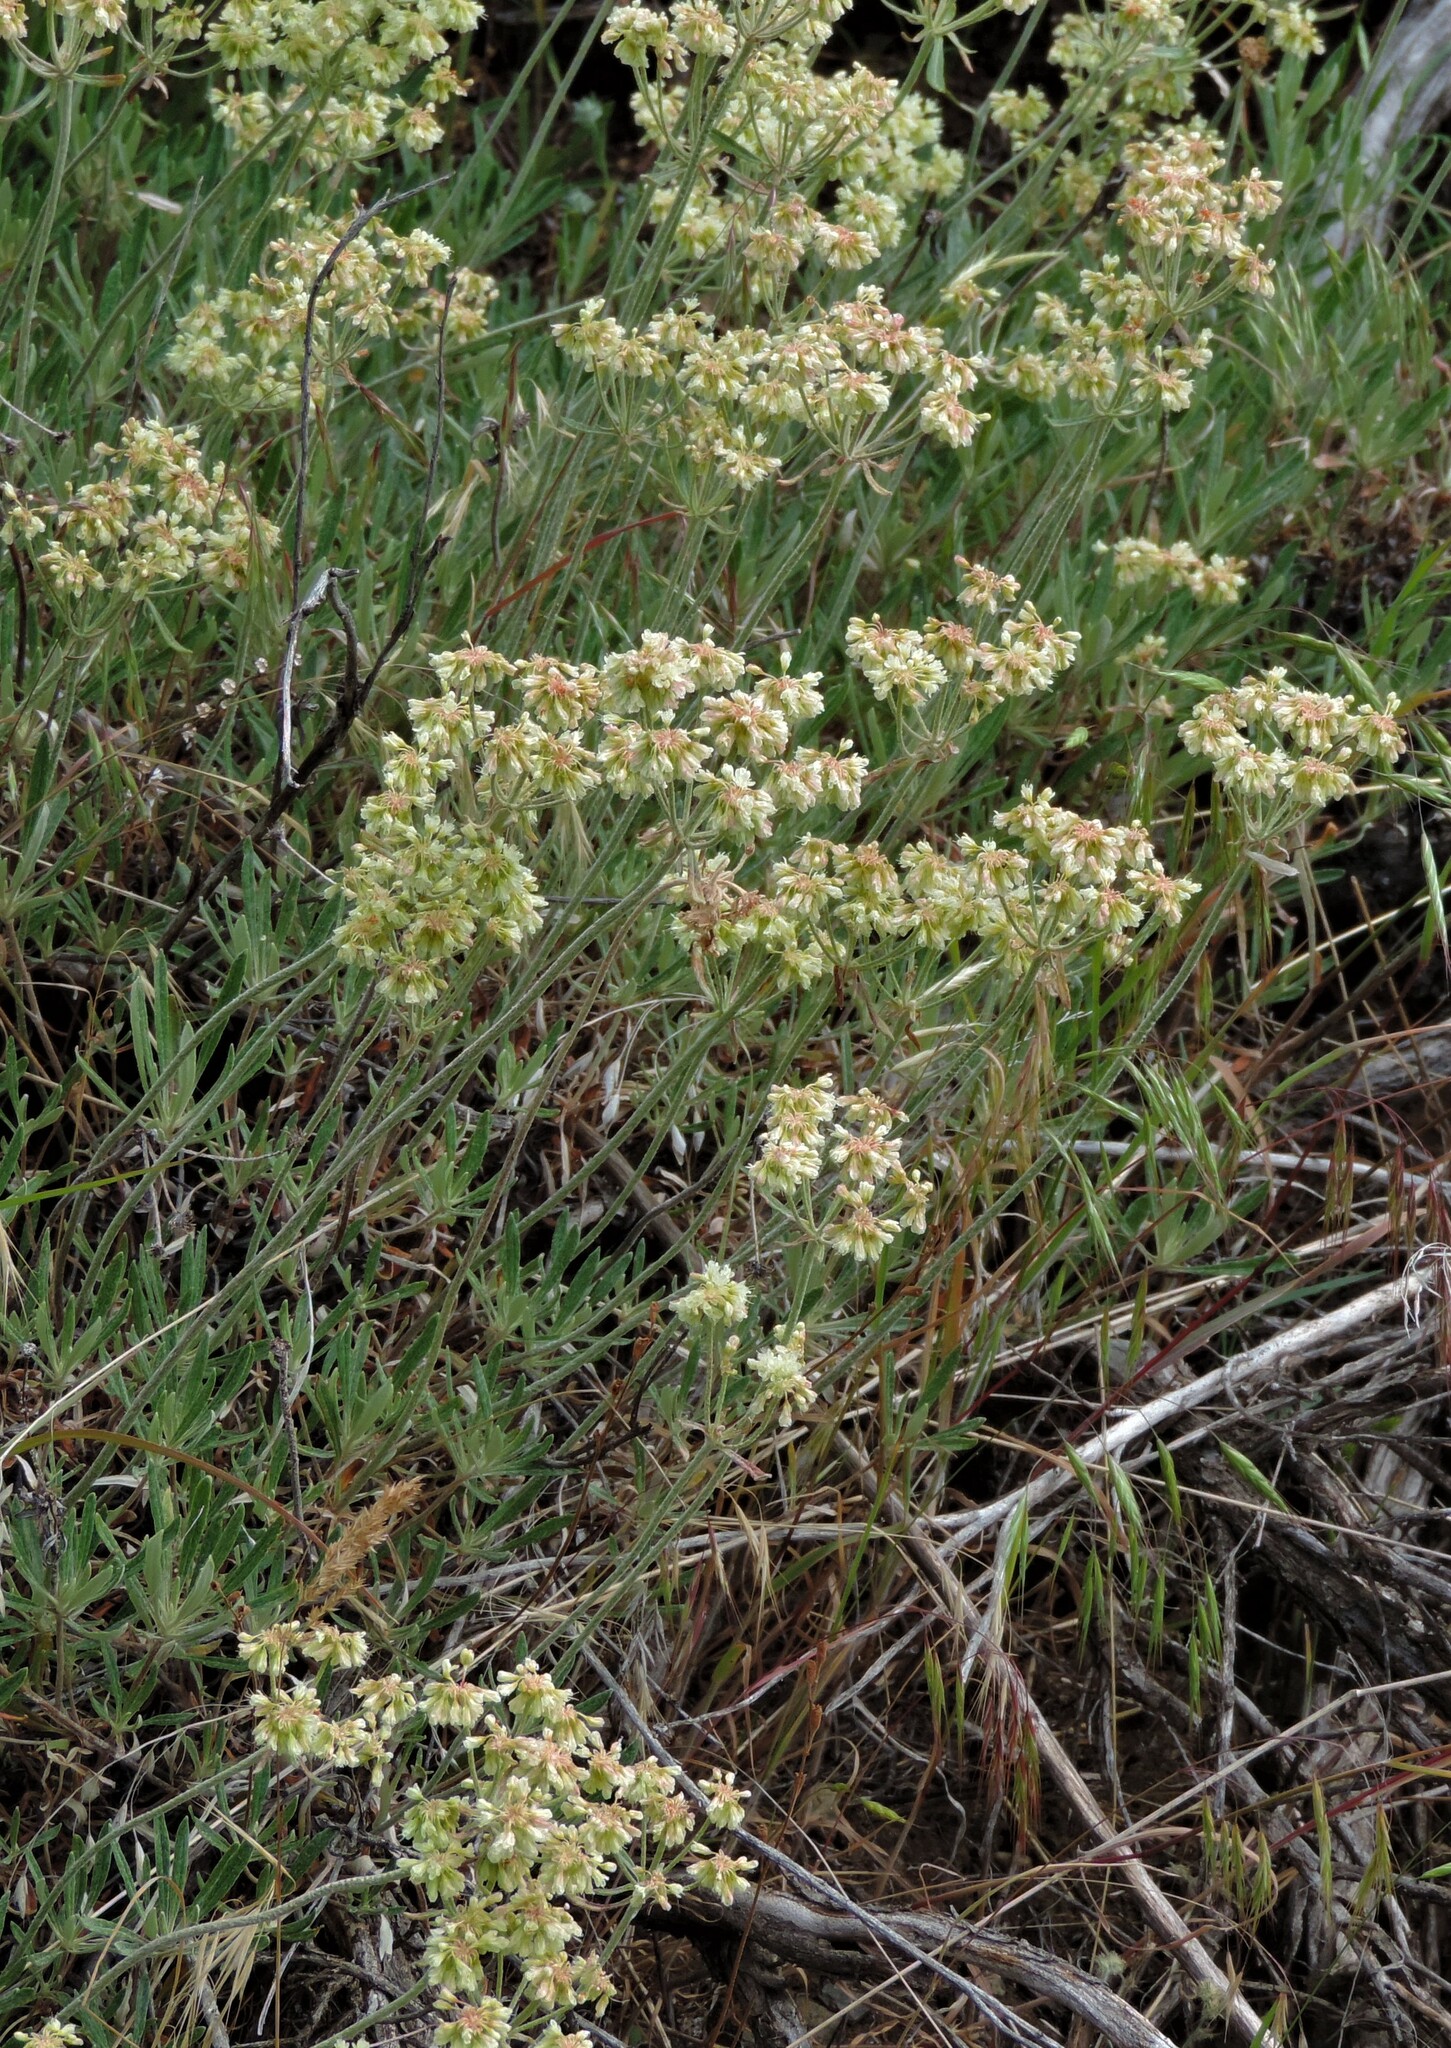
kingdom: Plantae
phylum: Tracheophyta
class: Magnoliopsida
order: Caryophyllales
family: Polygonaceae
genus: Eriogonum
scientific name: Eriogonum heracleoides
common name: Wyeth's buckwheat
